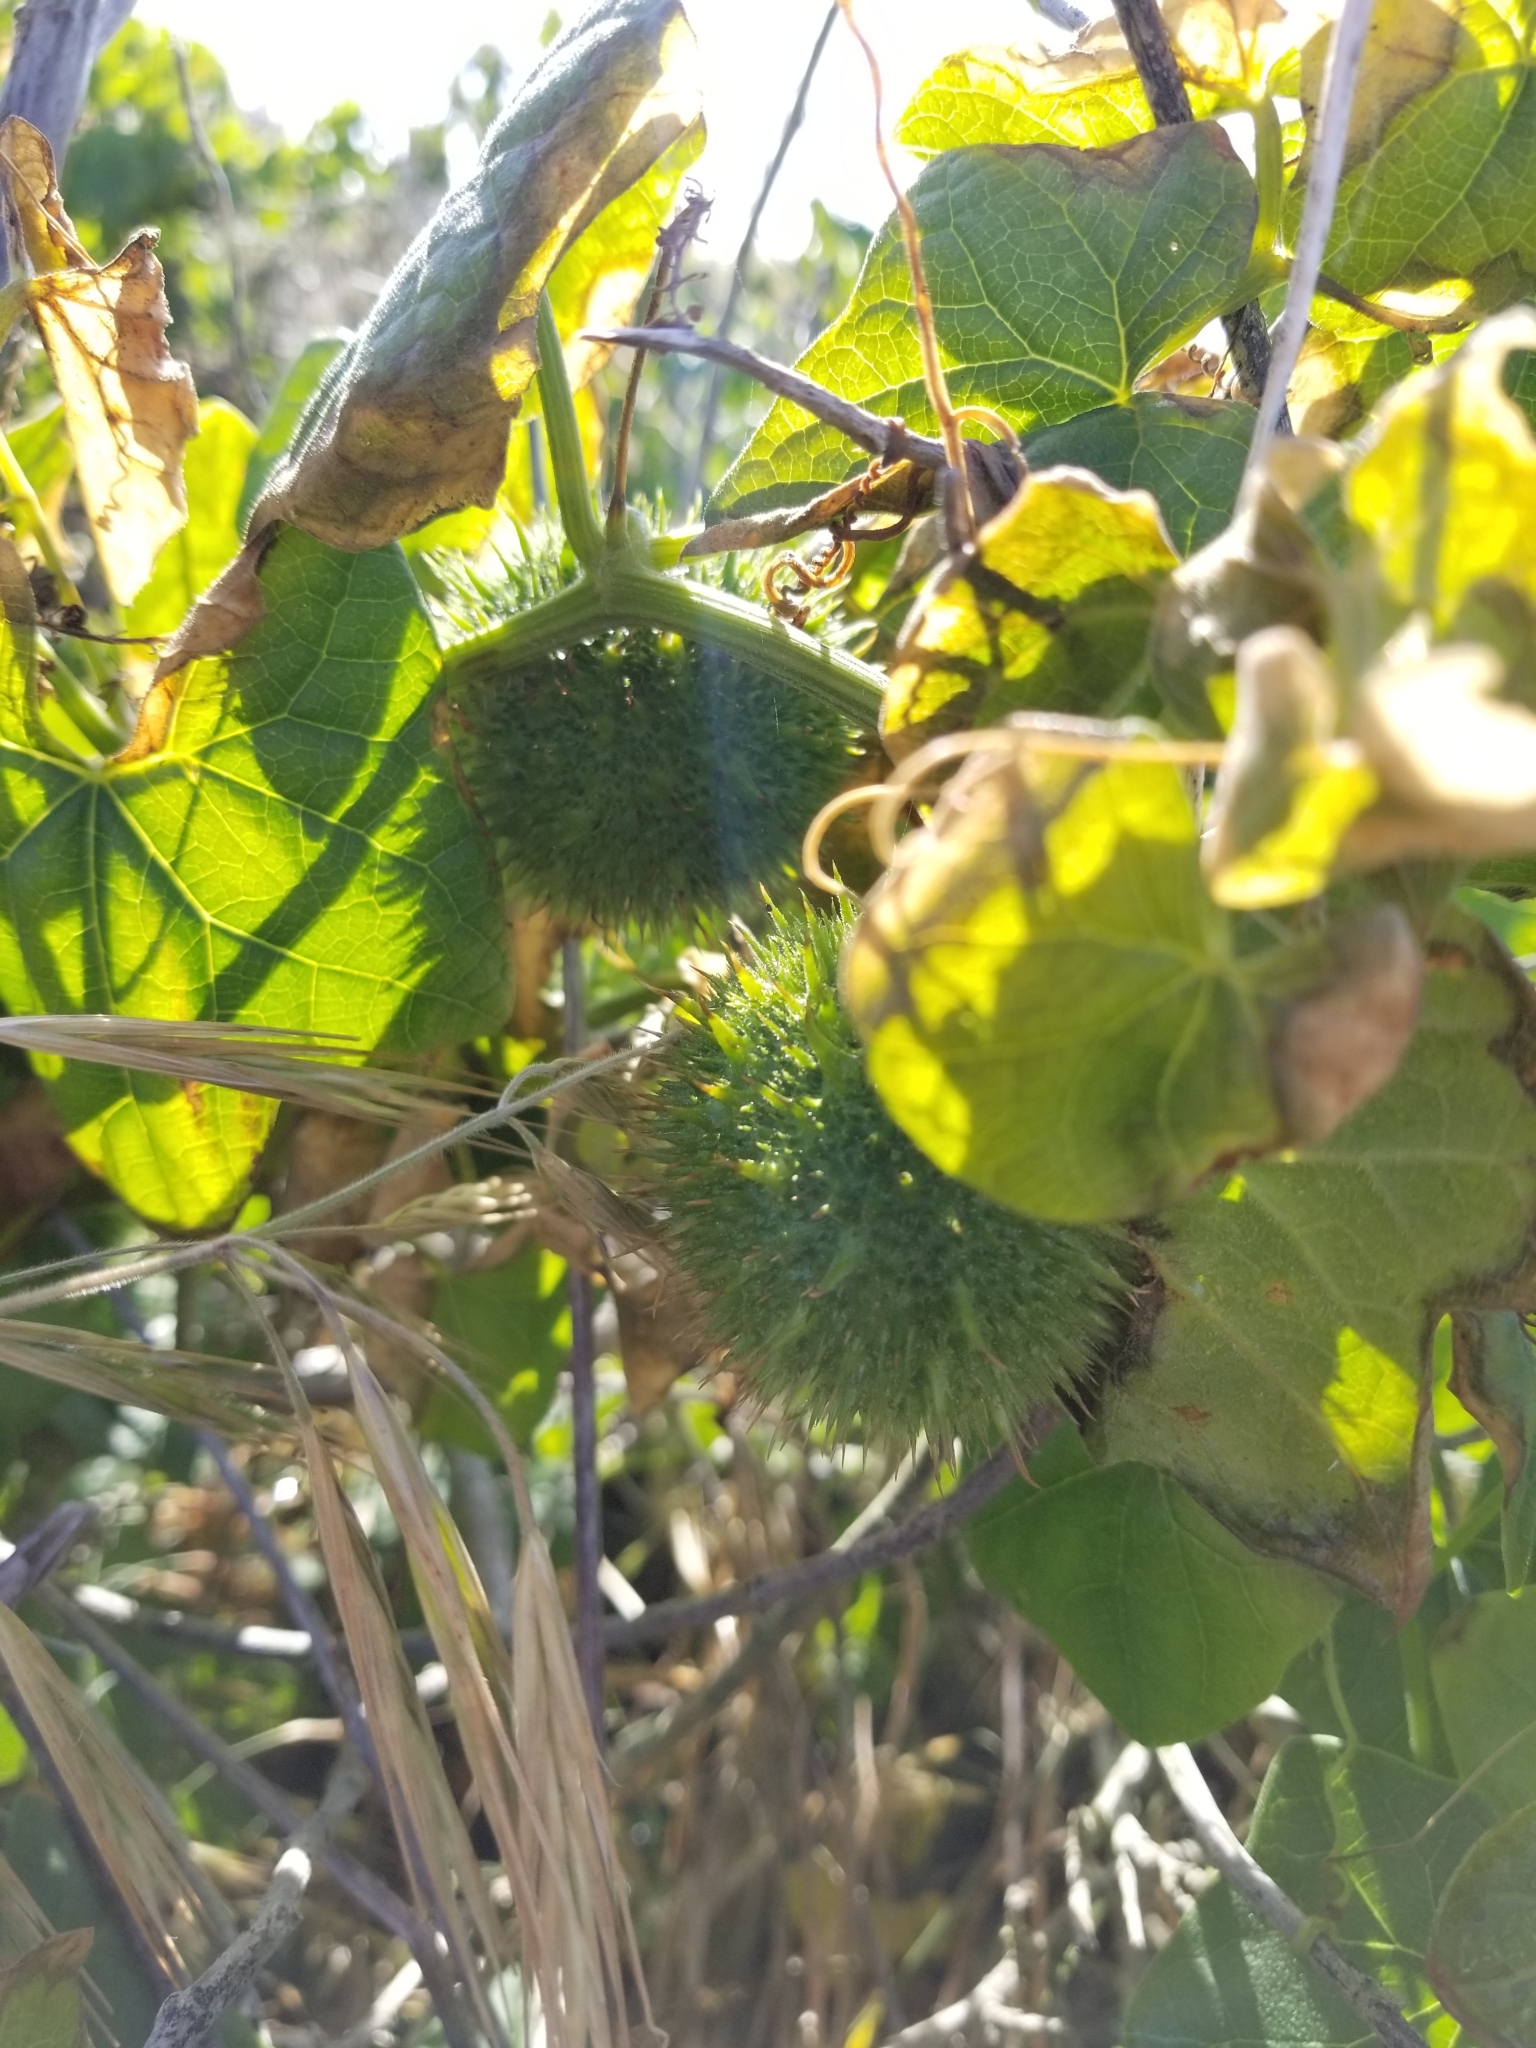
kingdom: Plantae
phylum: Tracheophyta
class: Magnoliopsida
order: Cucurbitales
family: Cucurbitaceae
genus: Marah
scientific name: Marah fabacea
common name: California manroot
